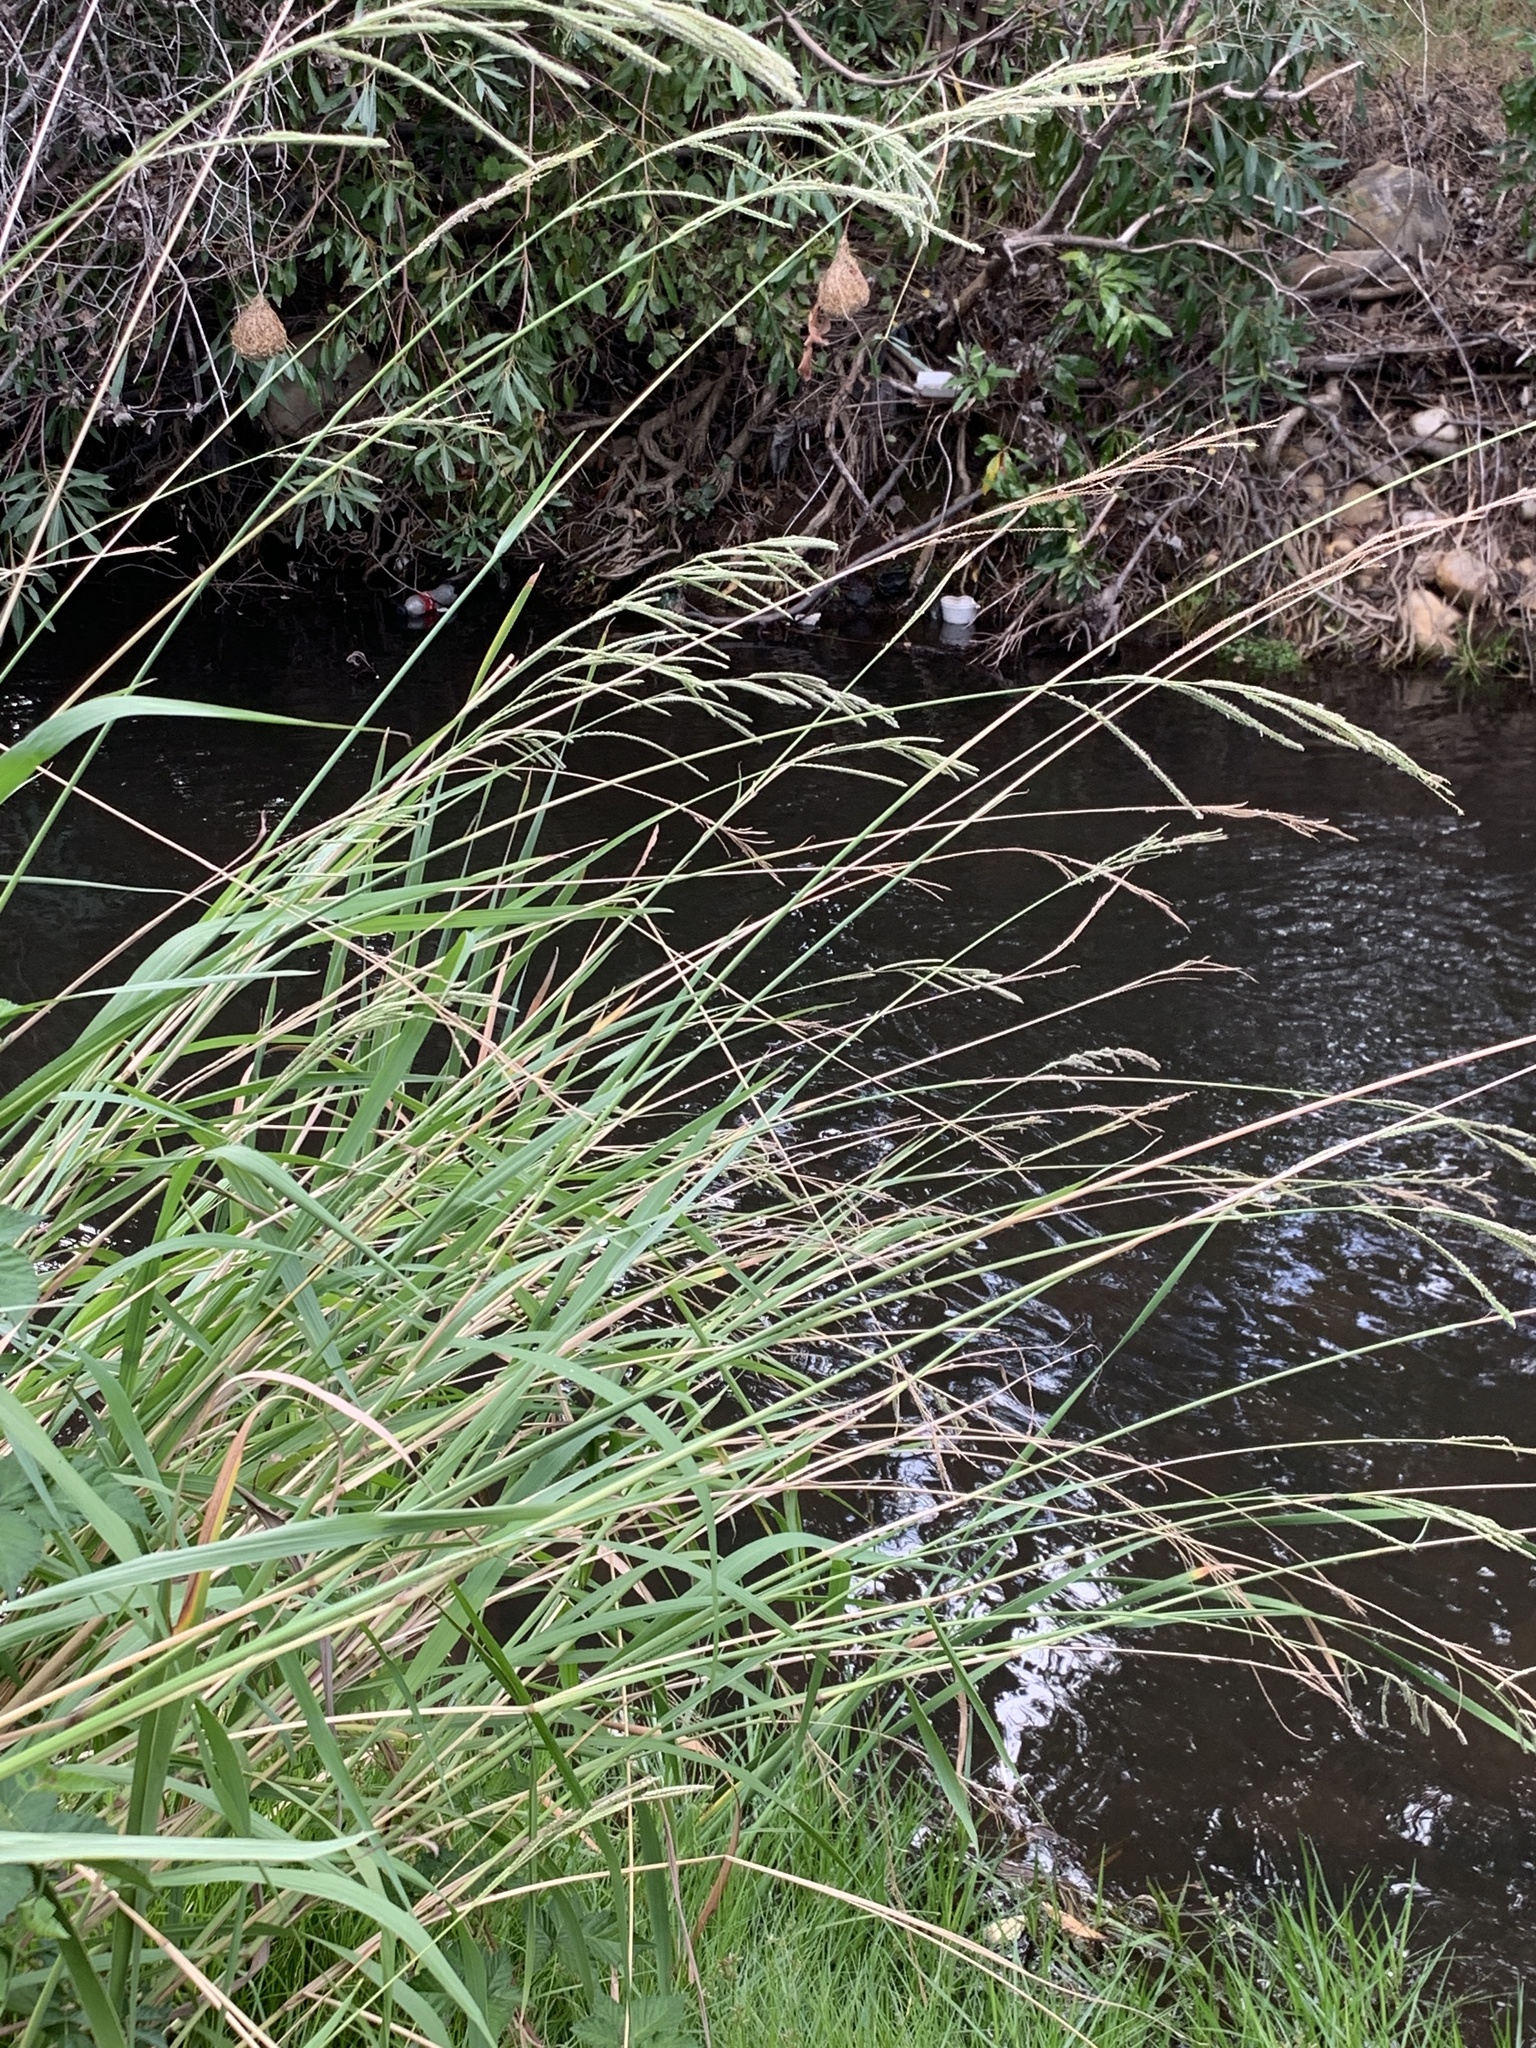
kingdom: Plantae
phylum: Tracheophyta
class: Liliopsida
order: Poales
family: Poaceae
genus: Paspalum
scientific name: Paspalum urvillei
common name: Vasey's grass
